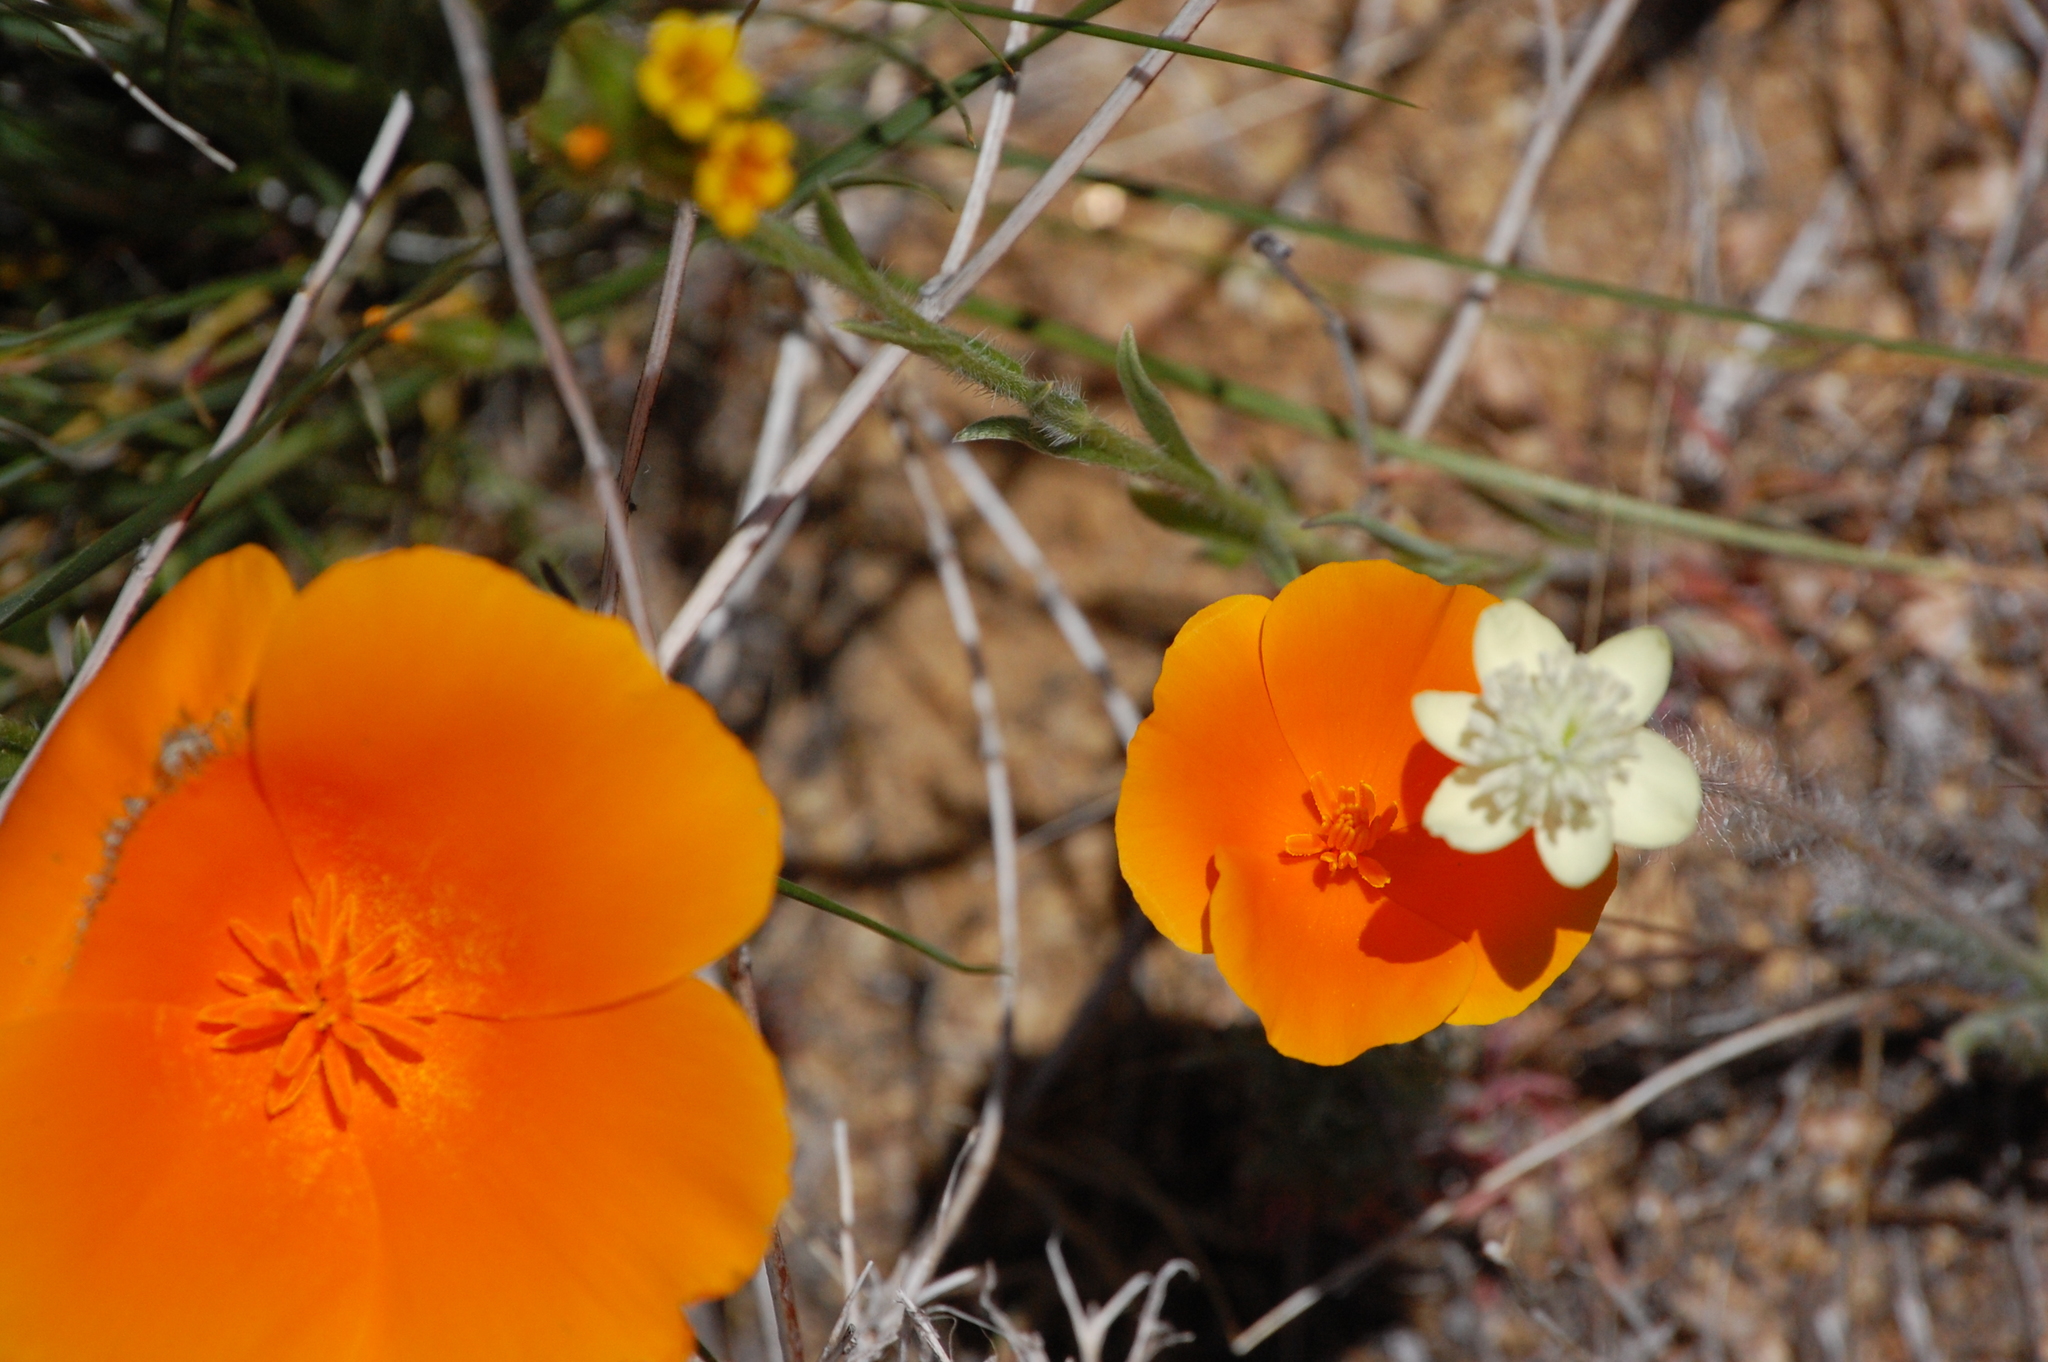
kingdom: Plantae
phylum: Tracheophyta
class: Magnoliopsida
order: Ranunculales
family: Papaveraceae
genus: Eschscholzia
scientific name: Eschscholzia californica
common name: California poppy
